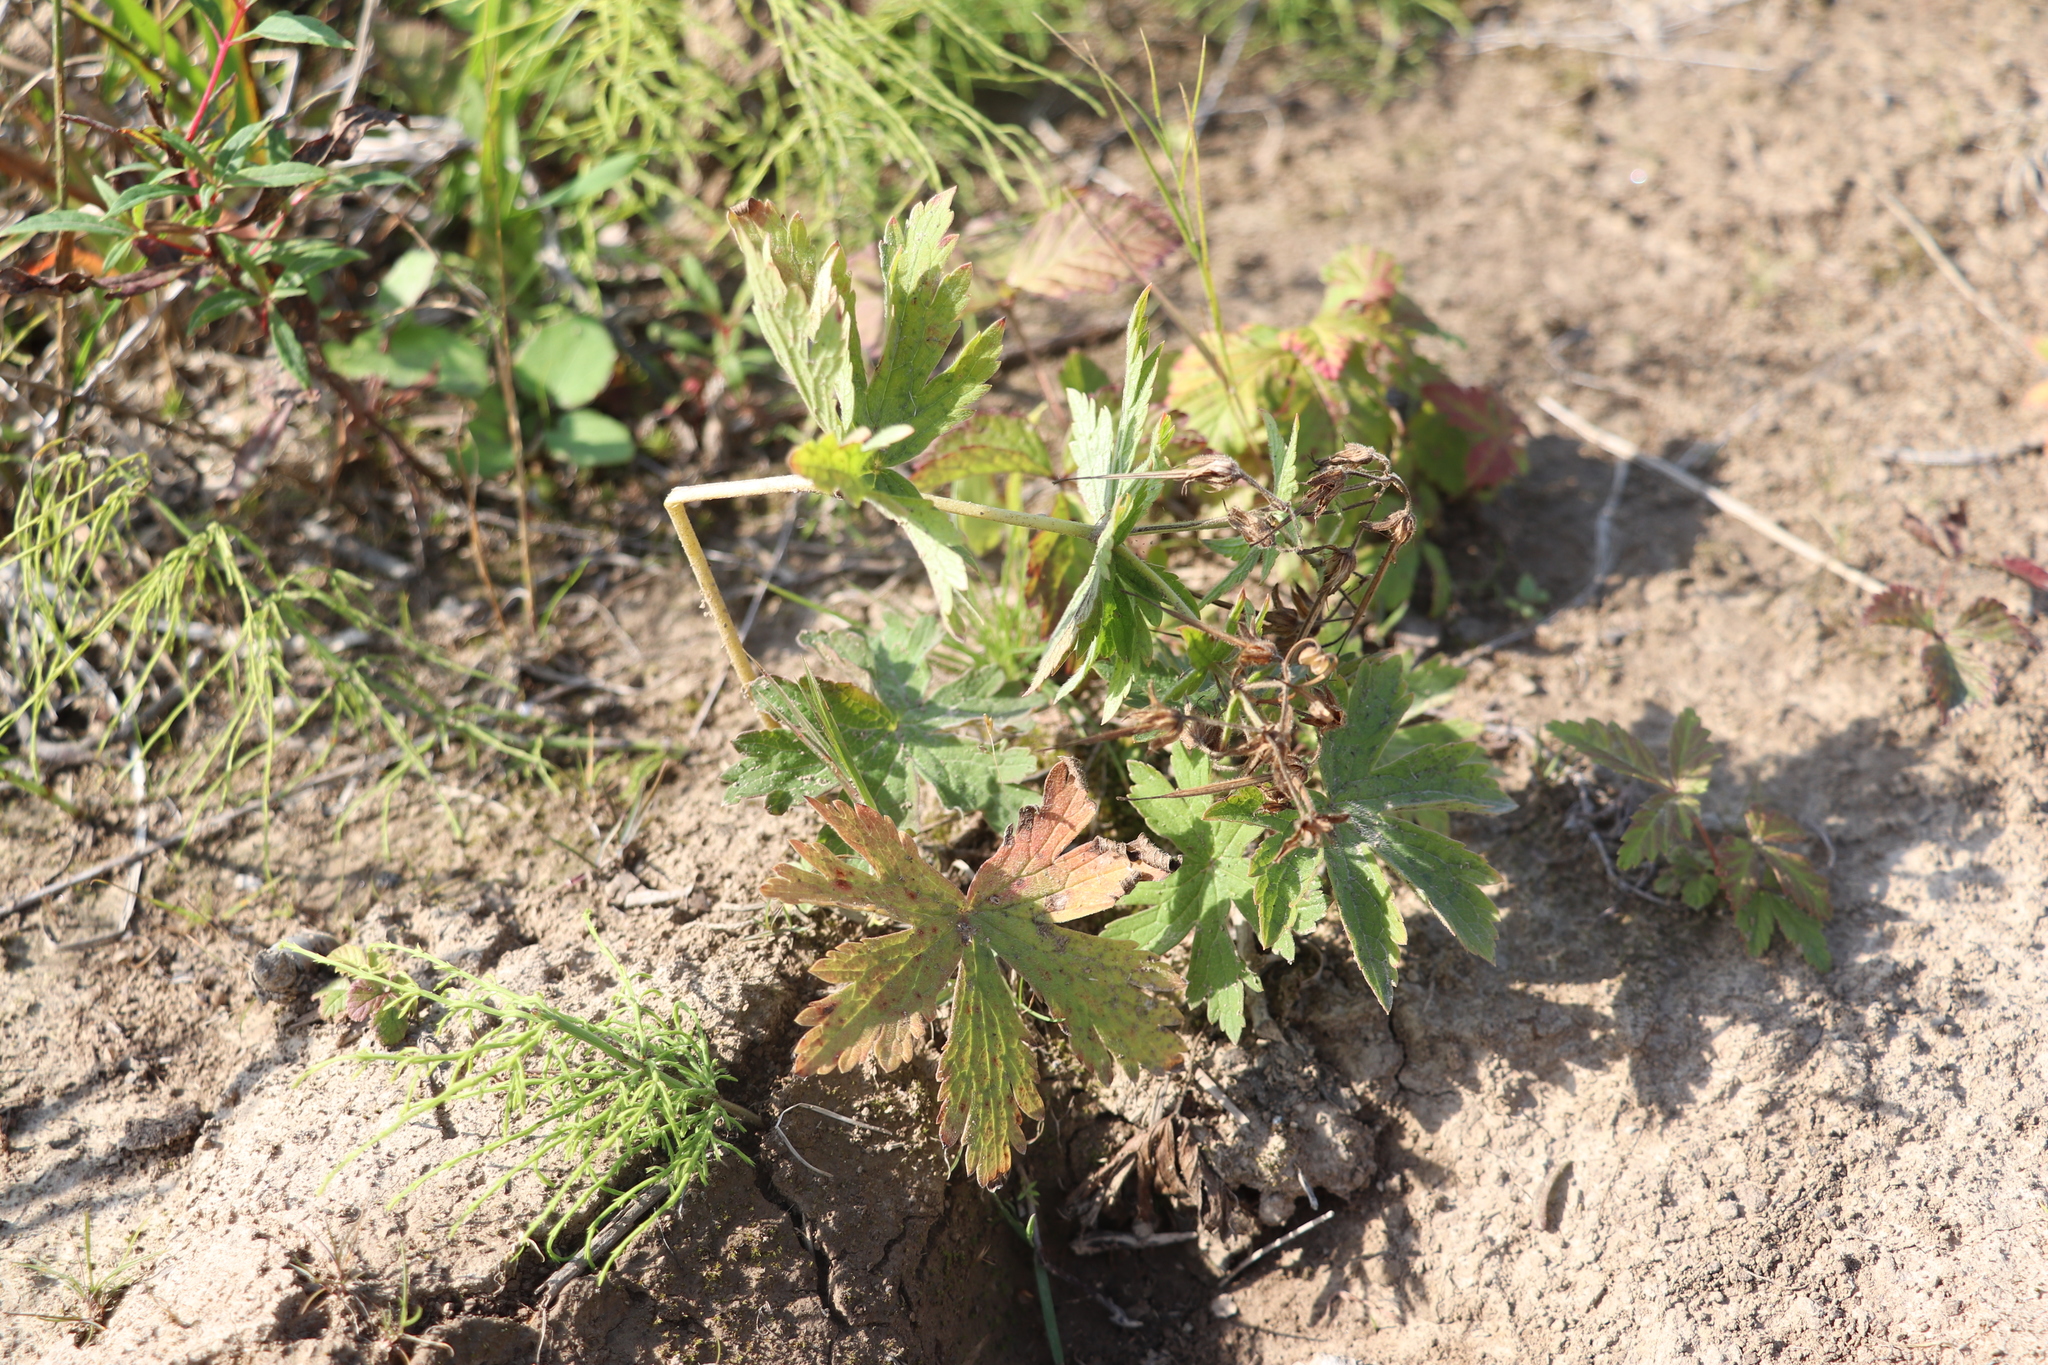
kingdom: Plantae
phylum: Tracheophyta
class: Magnoliopsida
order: Geraniales
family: Geraniaceae
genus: Geranium
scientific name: Geranium sibiricum
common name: Siberian crane's-bill
